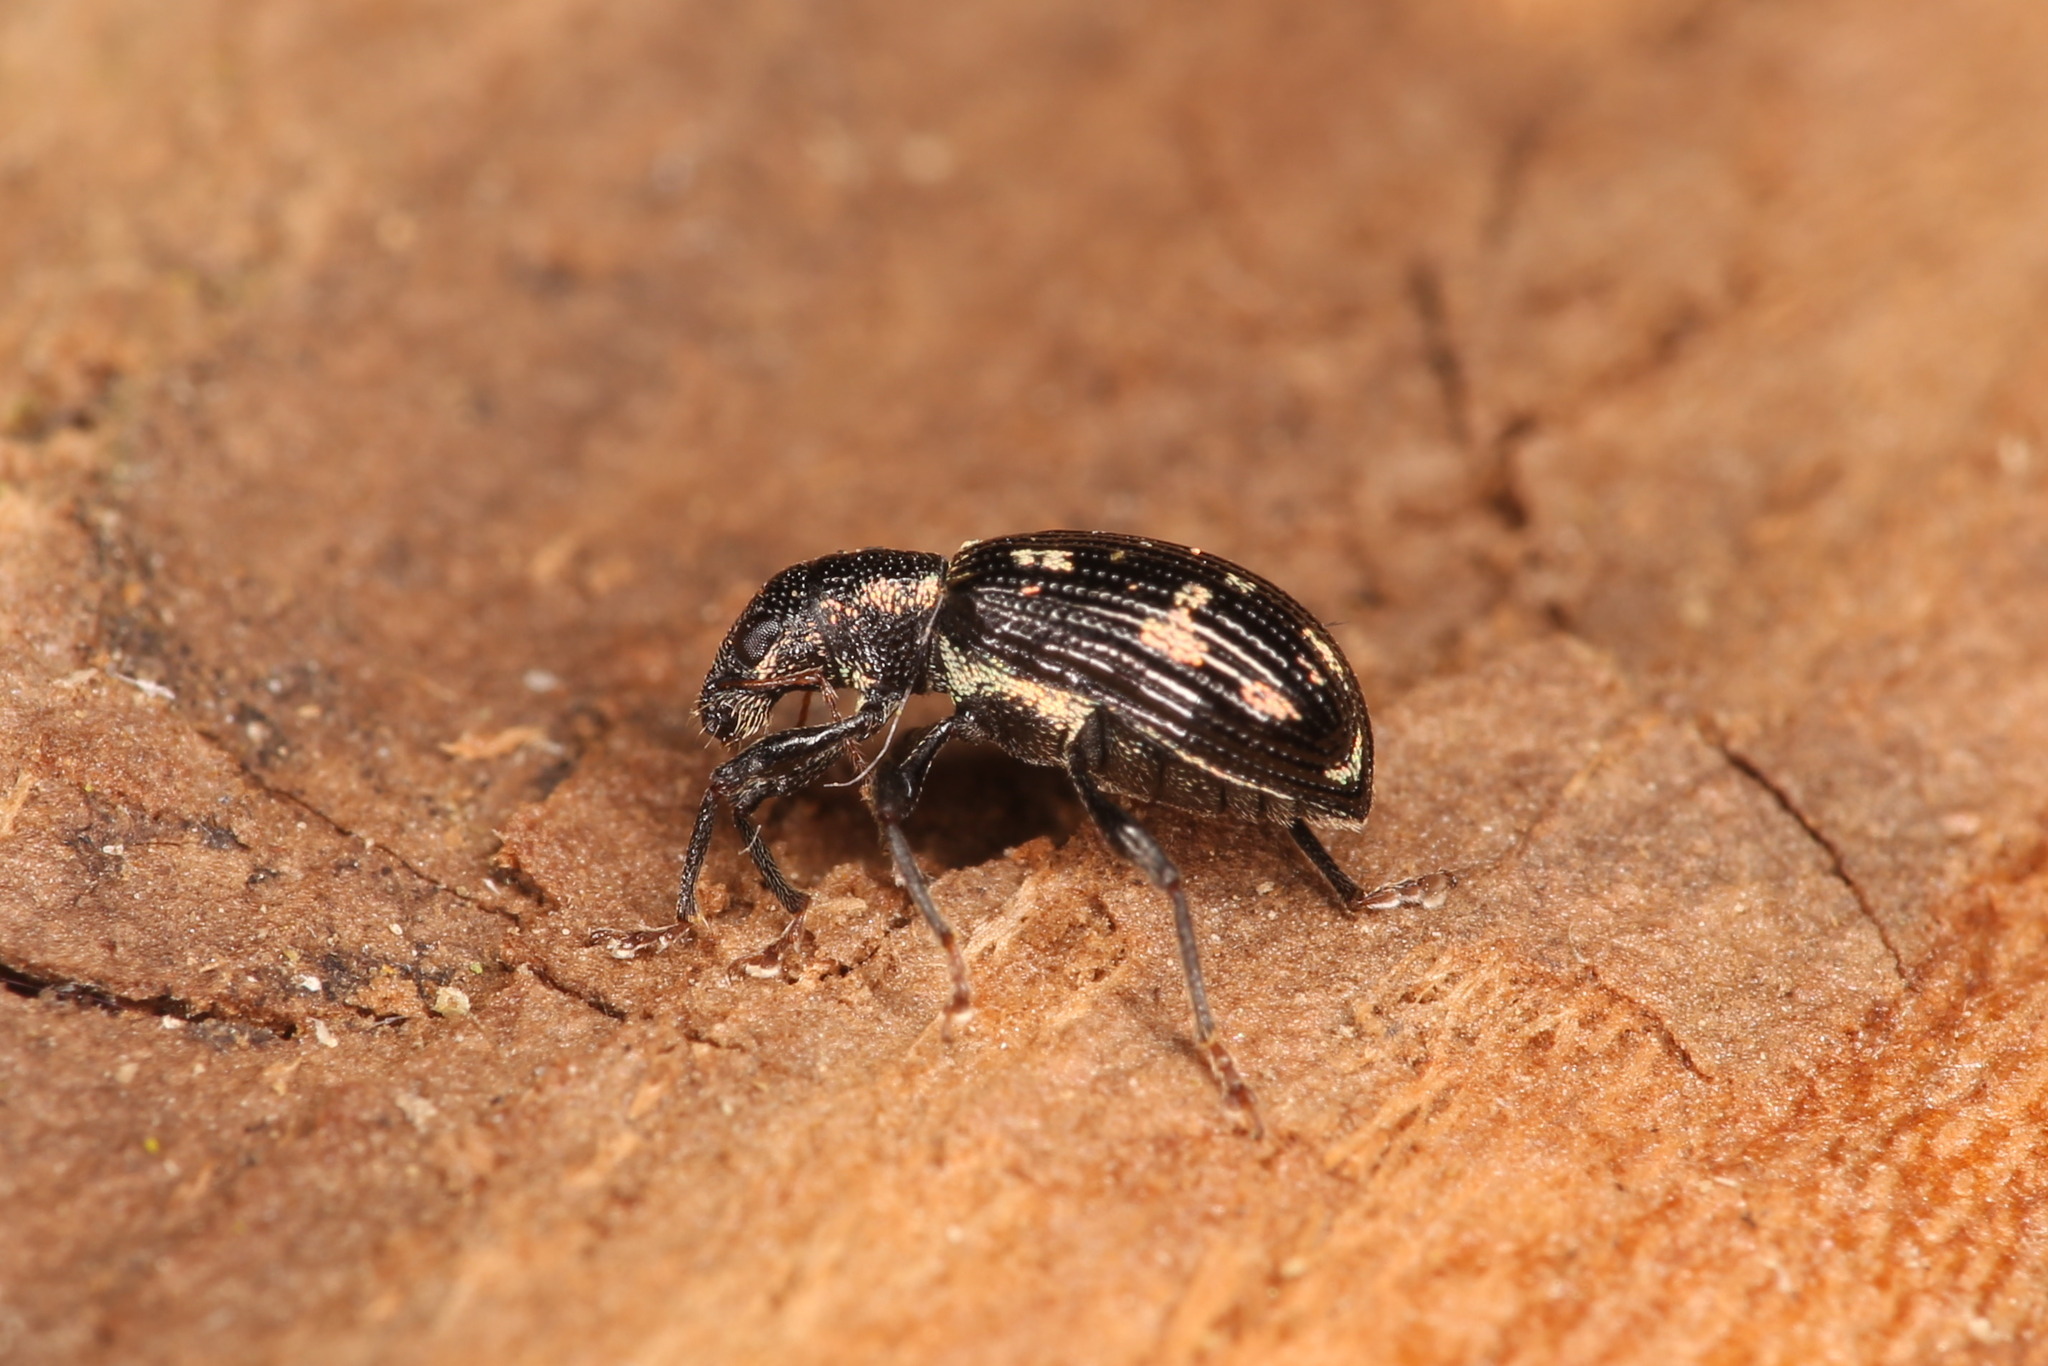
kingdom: Animalia
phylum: Arthropoda
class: Insecta
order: Coleoptera
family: Curculionidae
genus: Polydrusus
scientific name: Polydrusus picus
